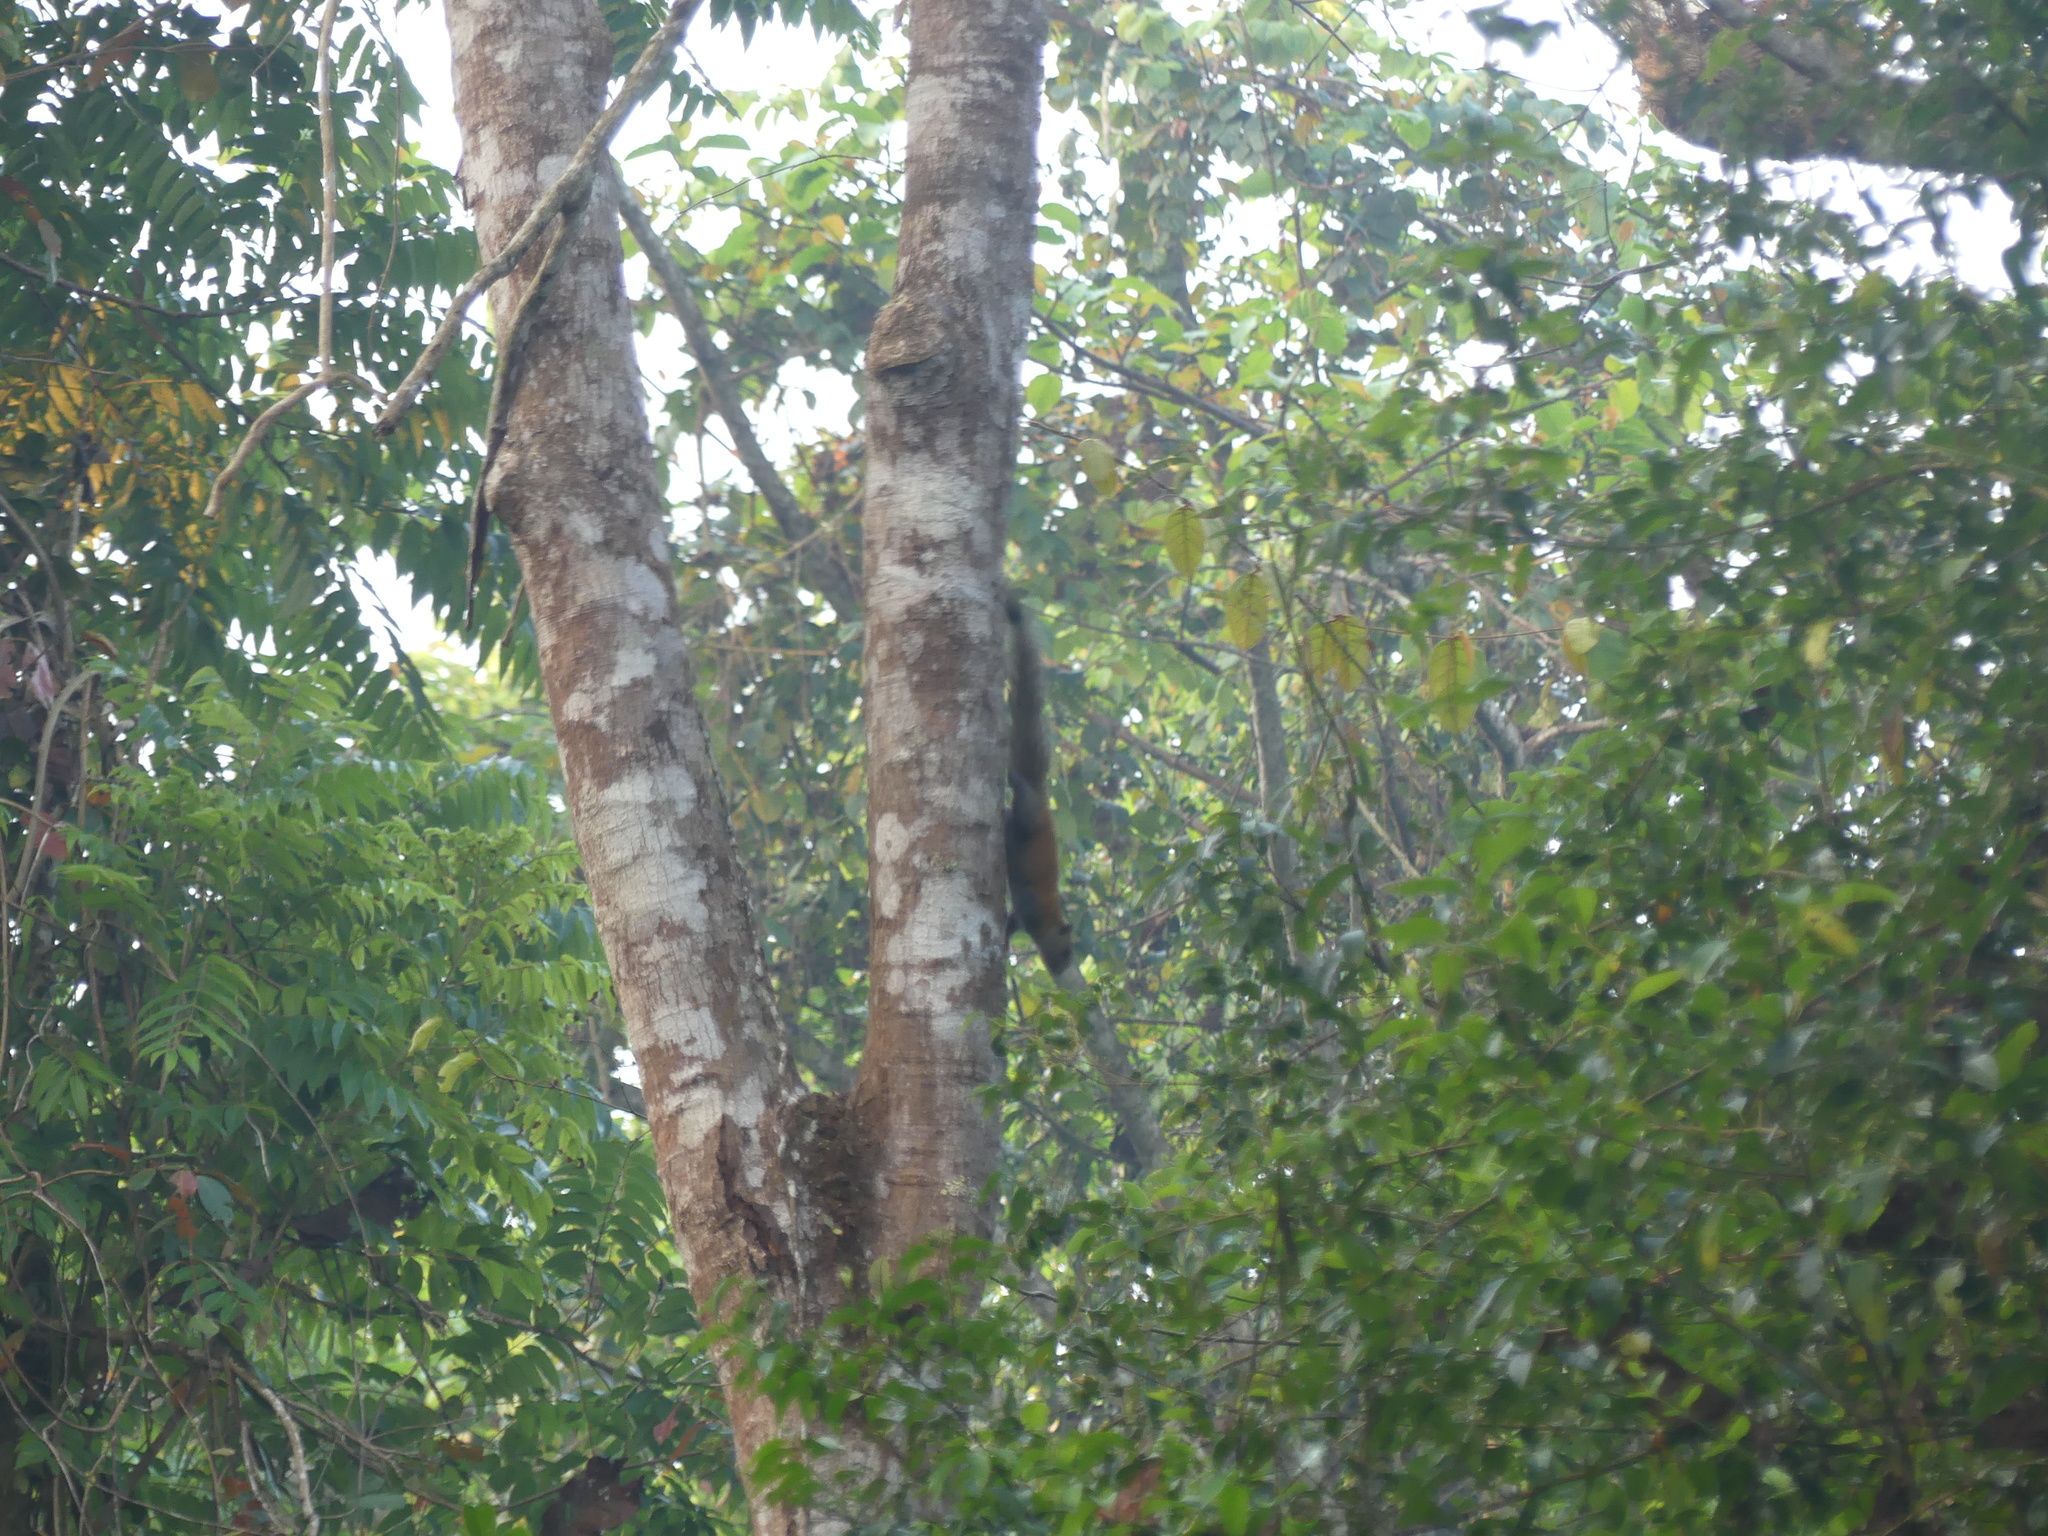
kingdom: Animalia
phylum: Chordata
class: Mammalia
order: Rodentia
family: Sciuridae
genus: Callosciurus
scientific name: Callosciurus caniceps
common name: Gray-bellied squirrel
